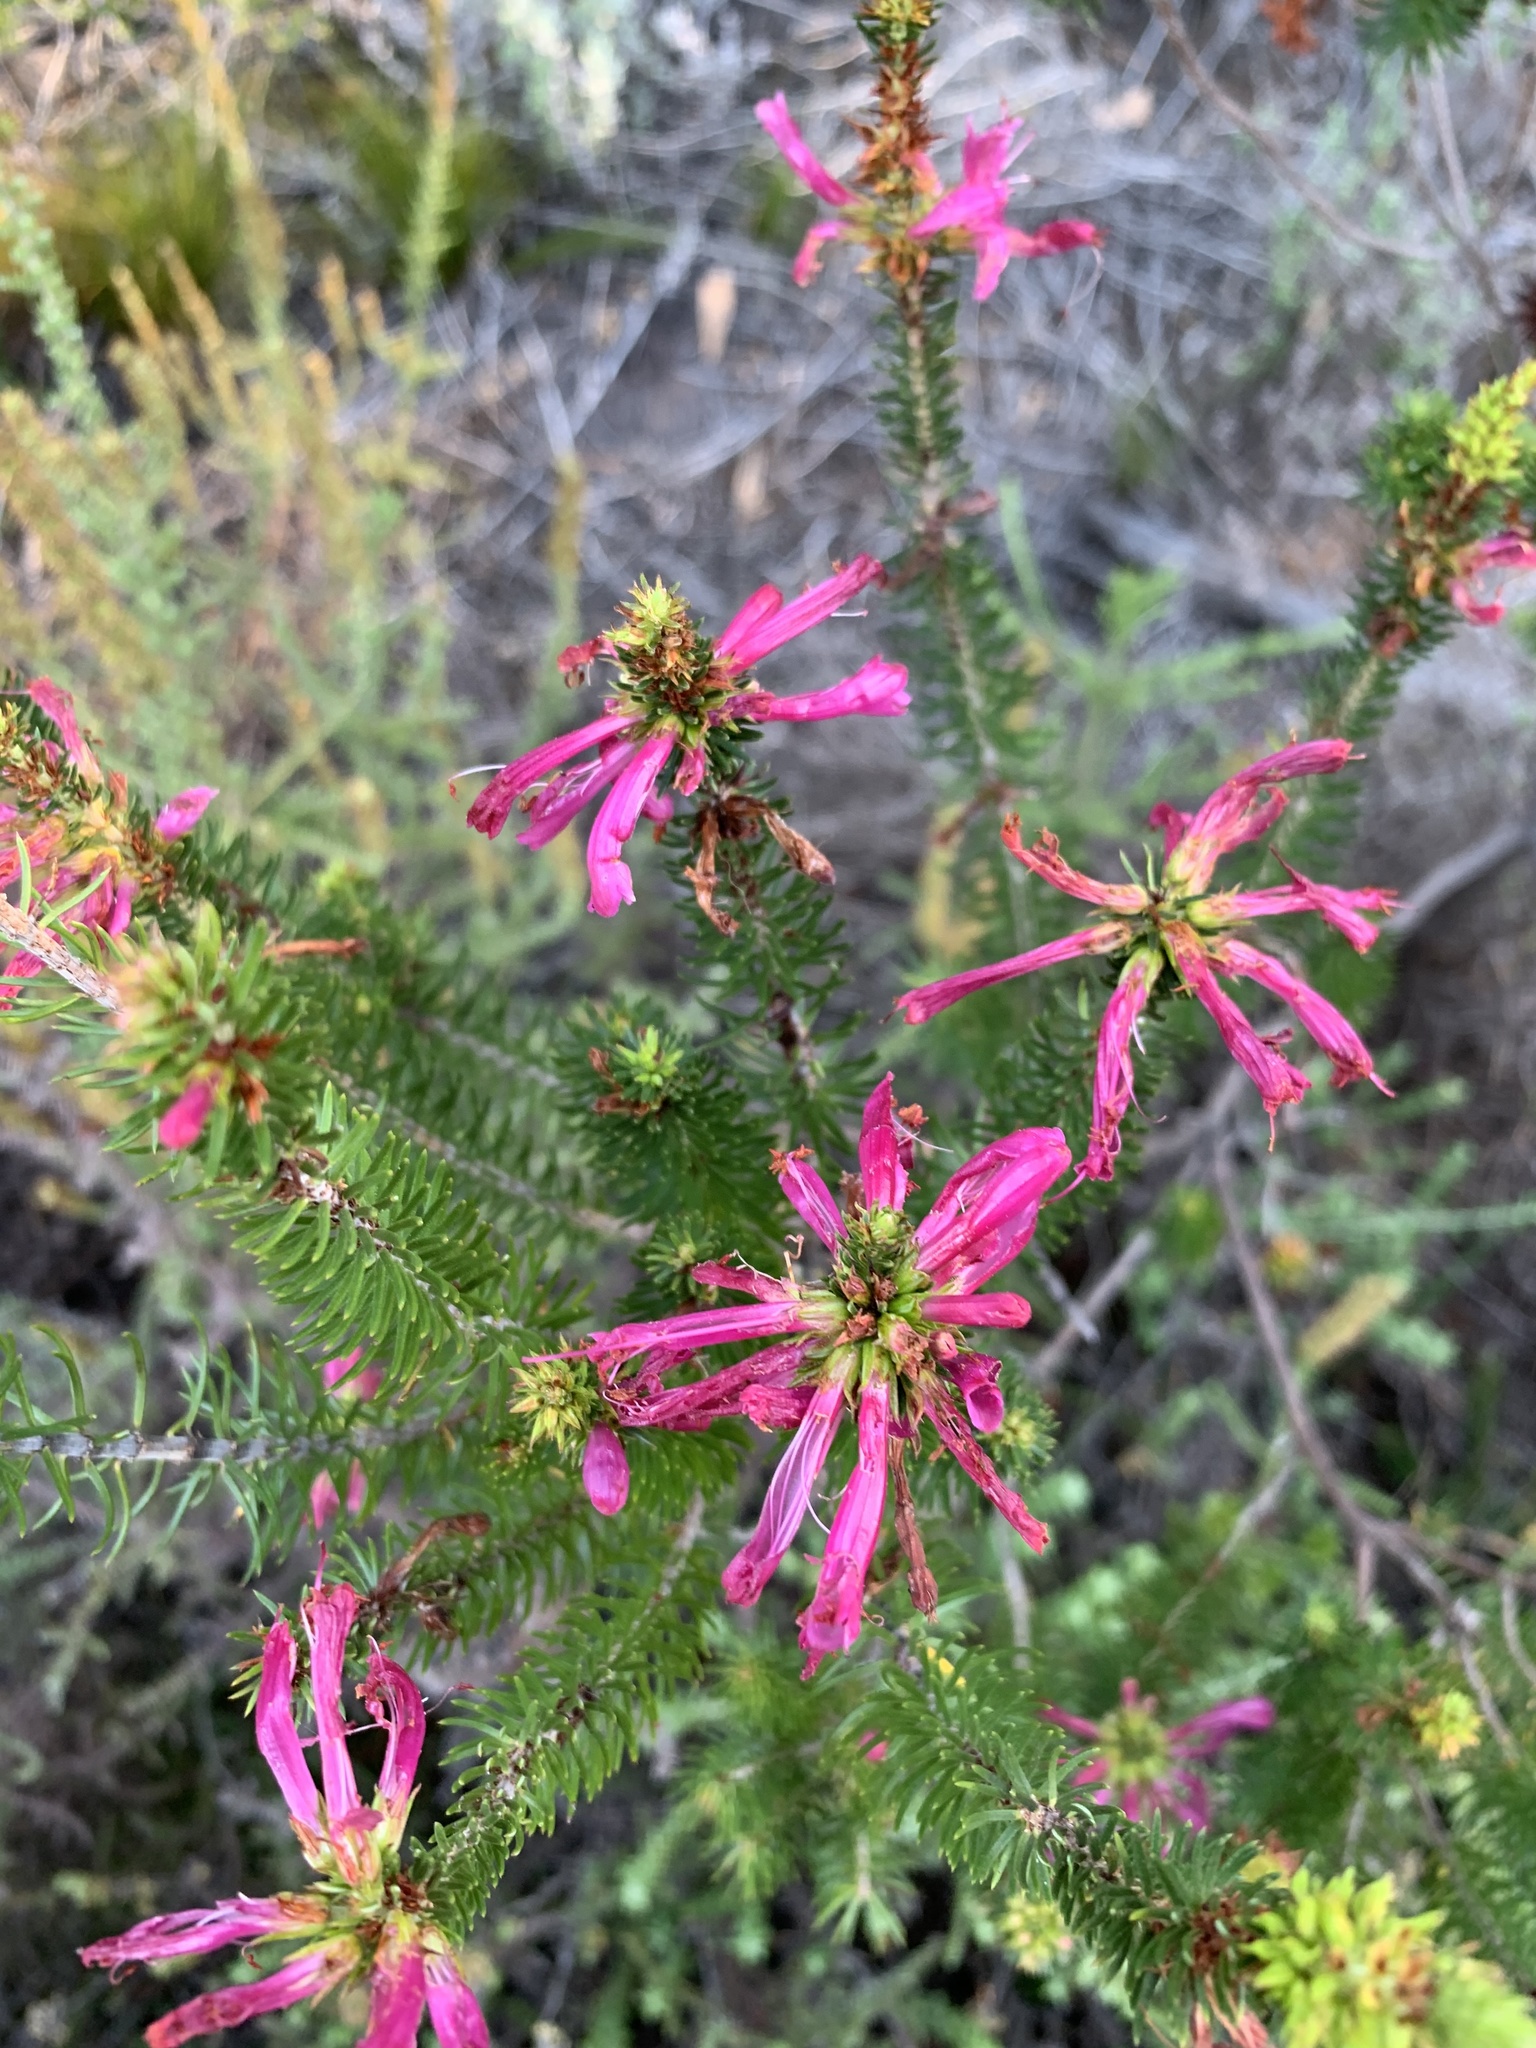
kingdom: Plantae
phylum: Tracheophyta
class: Magnoliopsida
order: Ericales
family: Ericaceae
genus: Erica
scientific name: Erica abietina
